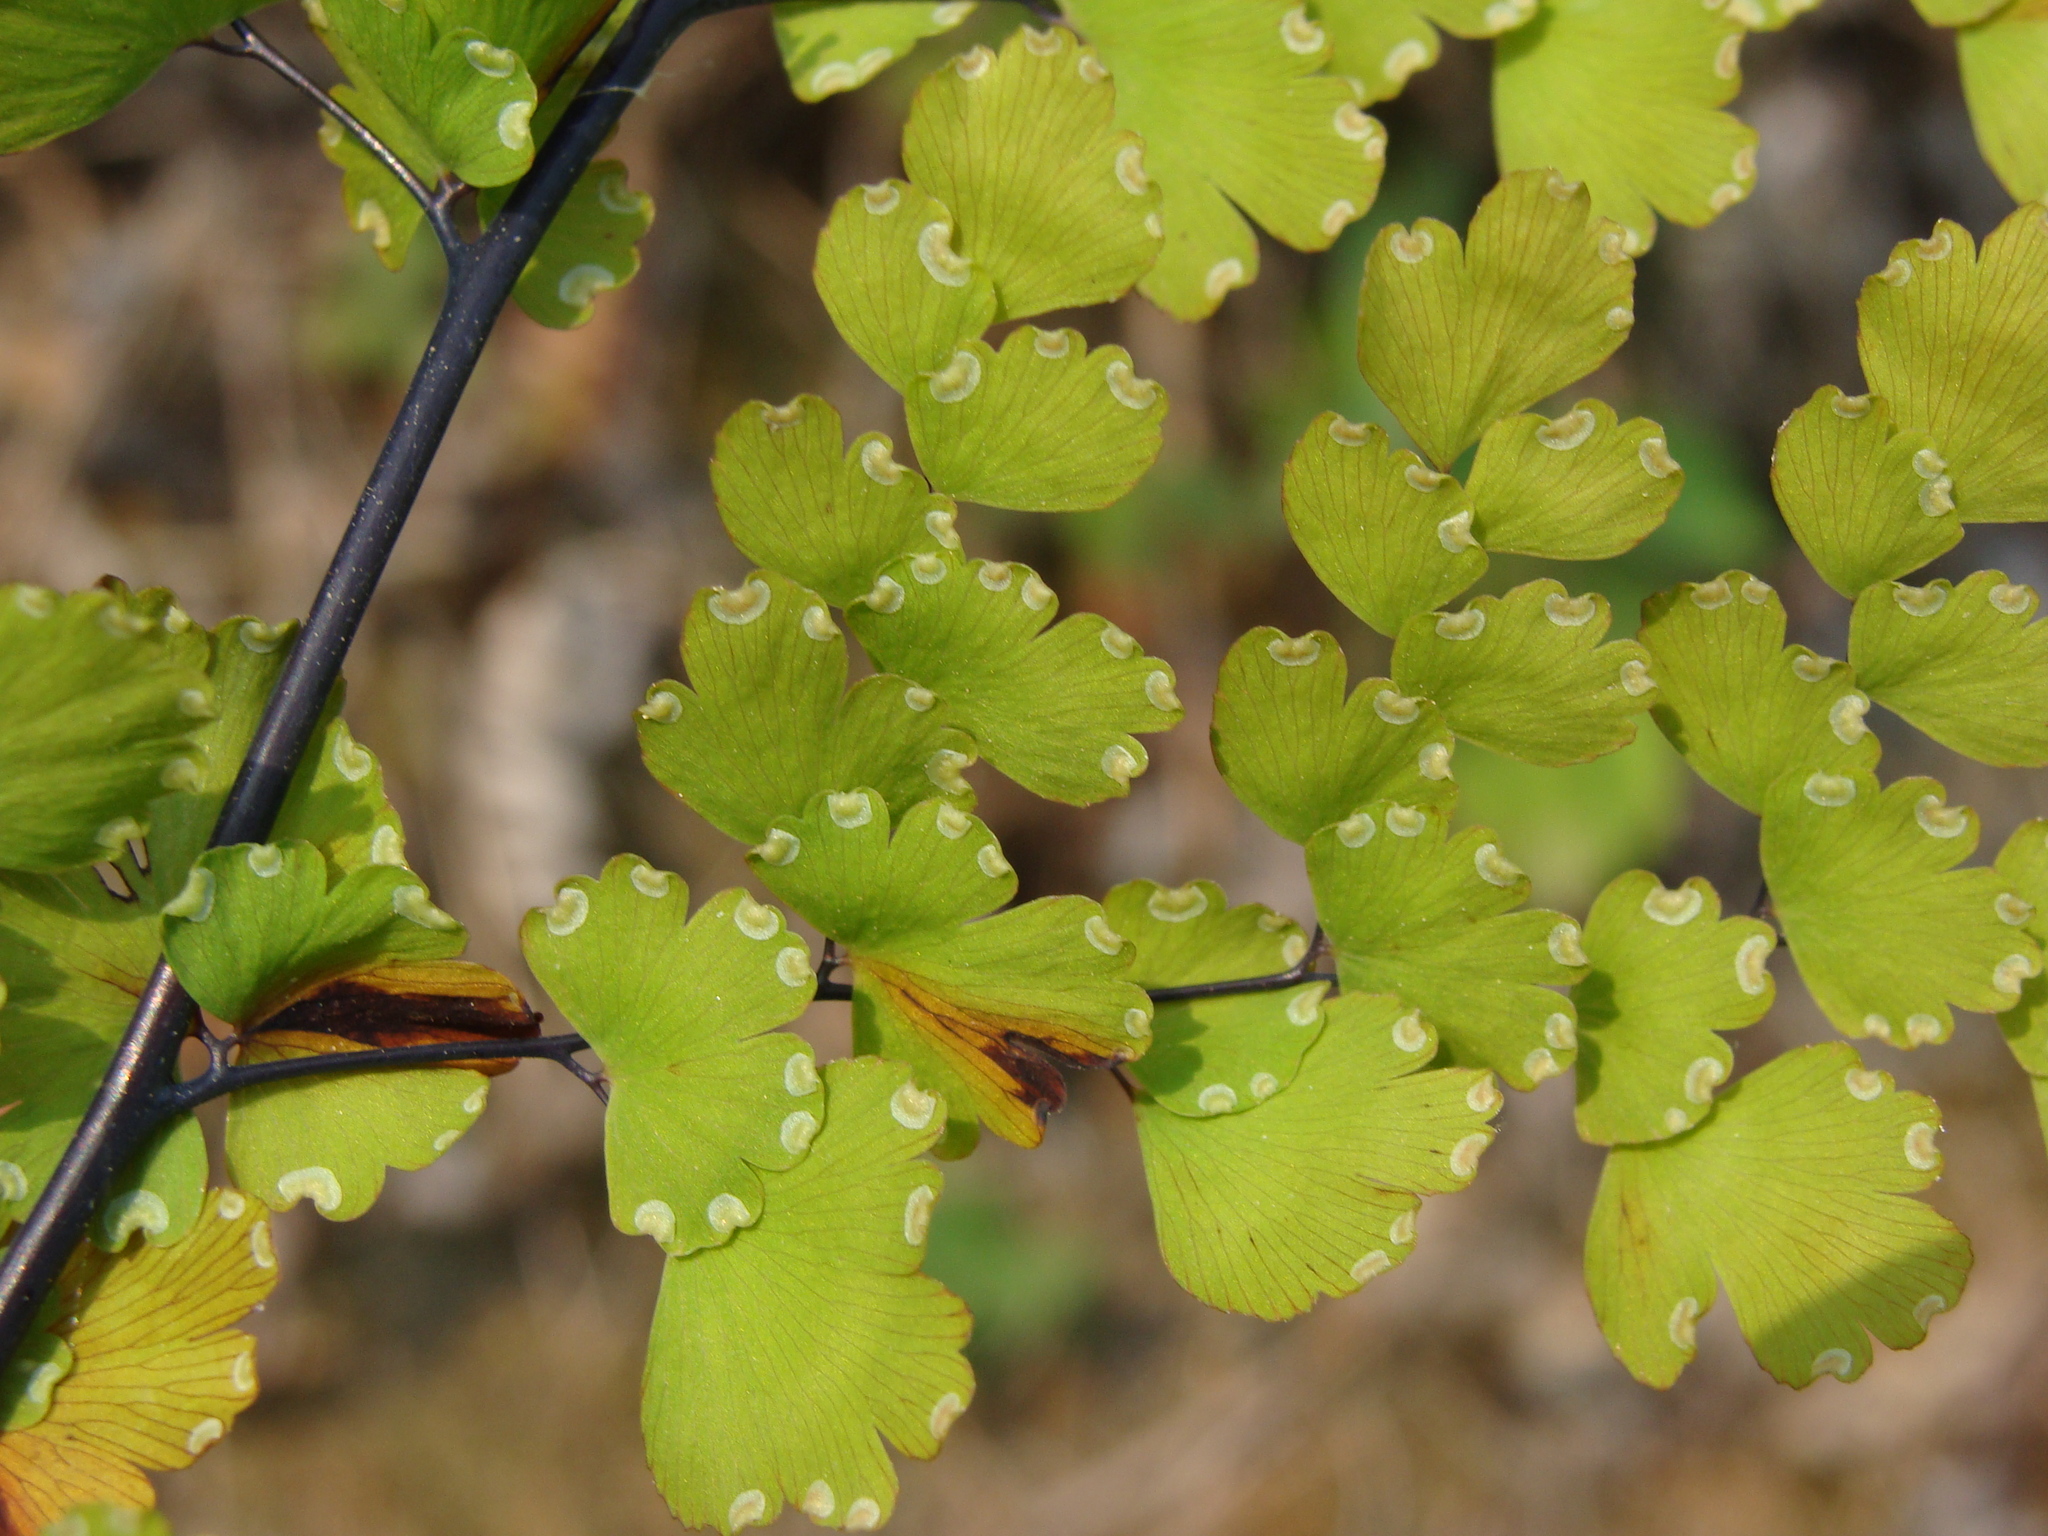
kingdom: Plantae
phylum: Tracheophyta
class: Polypodiopsida
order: Polypodiales
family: Pteridaceae
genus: Adiantum
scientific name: Adiantum concinnum
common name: Brittle maidenhair fern
